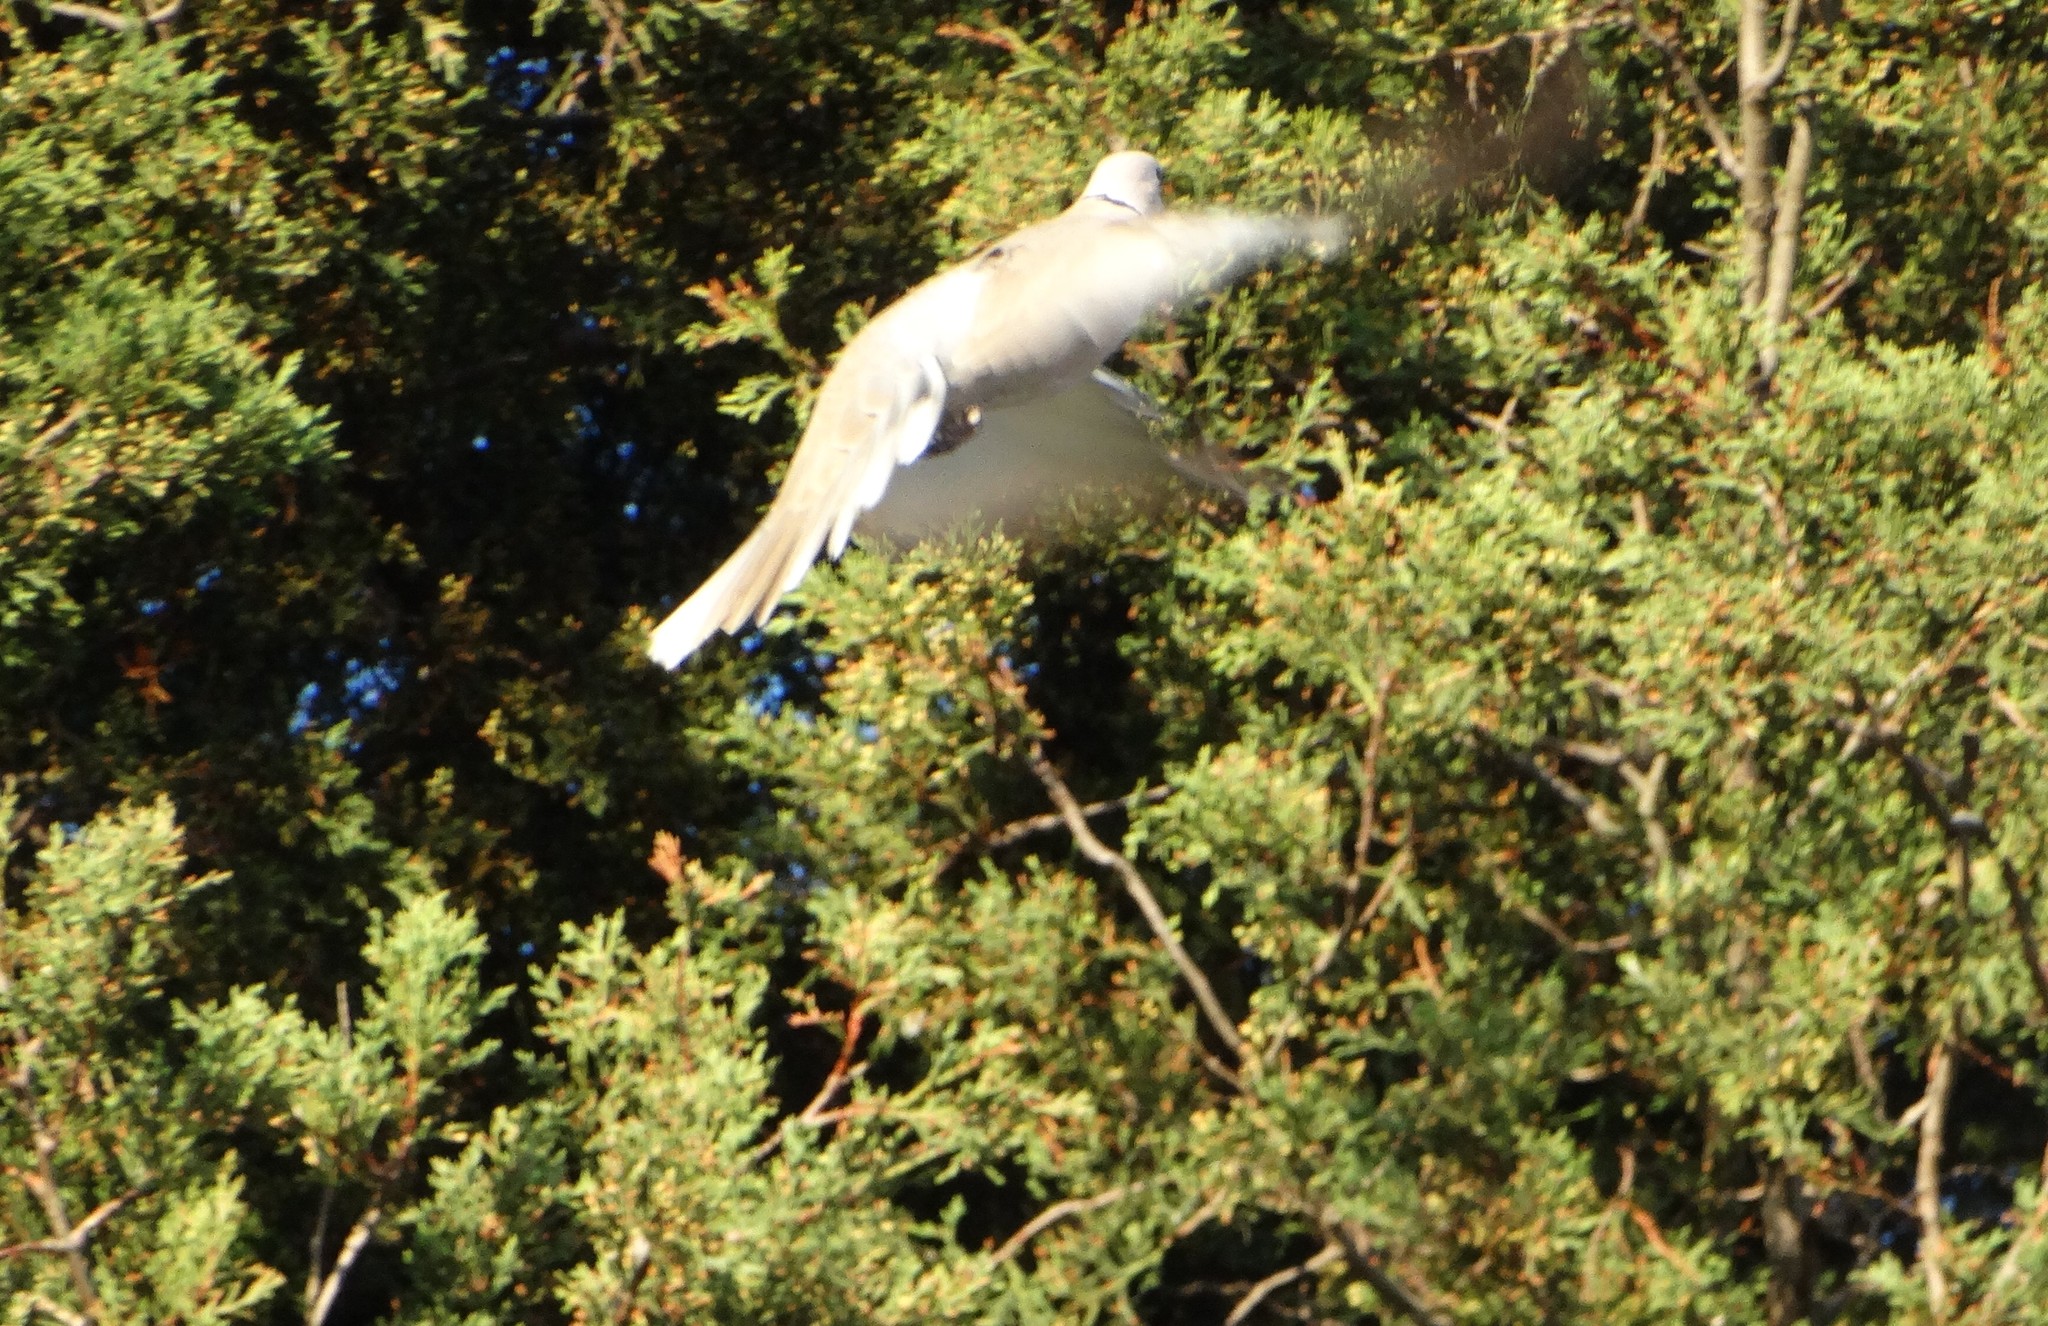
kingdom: Animalia
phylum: Chordata
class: Aves
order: Columbiformes
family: Columbidae
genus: Streptopelia
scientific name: Streptopelia decaocto
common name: Eurasian collared dove
